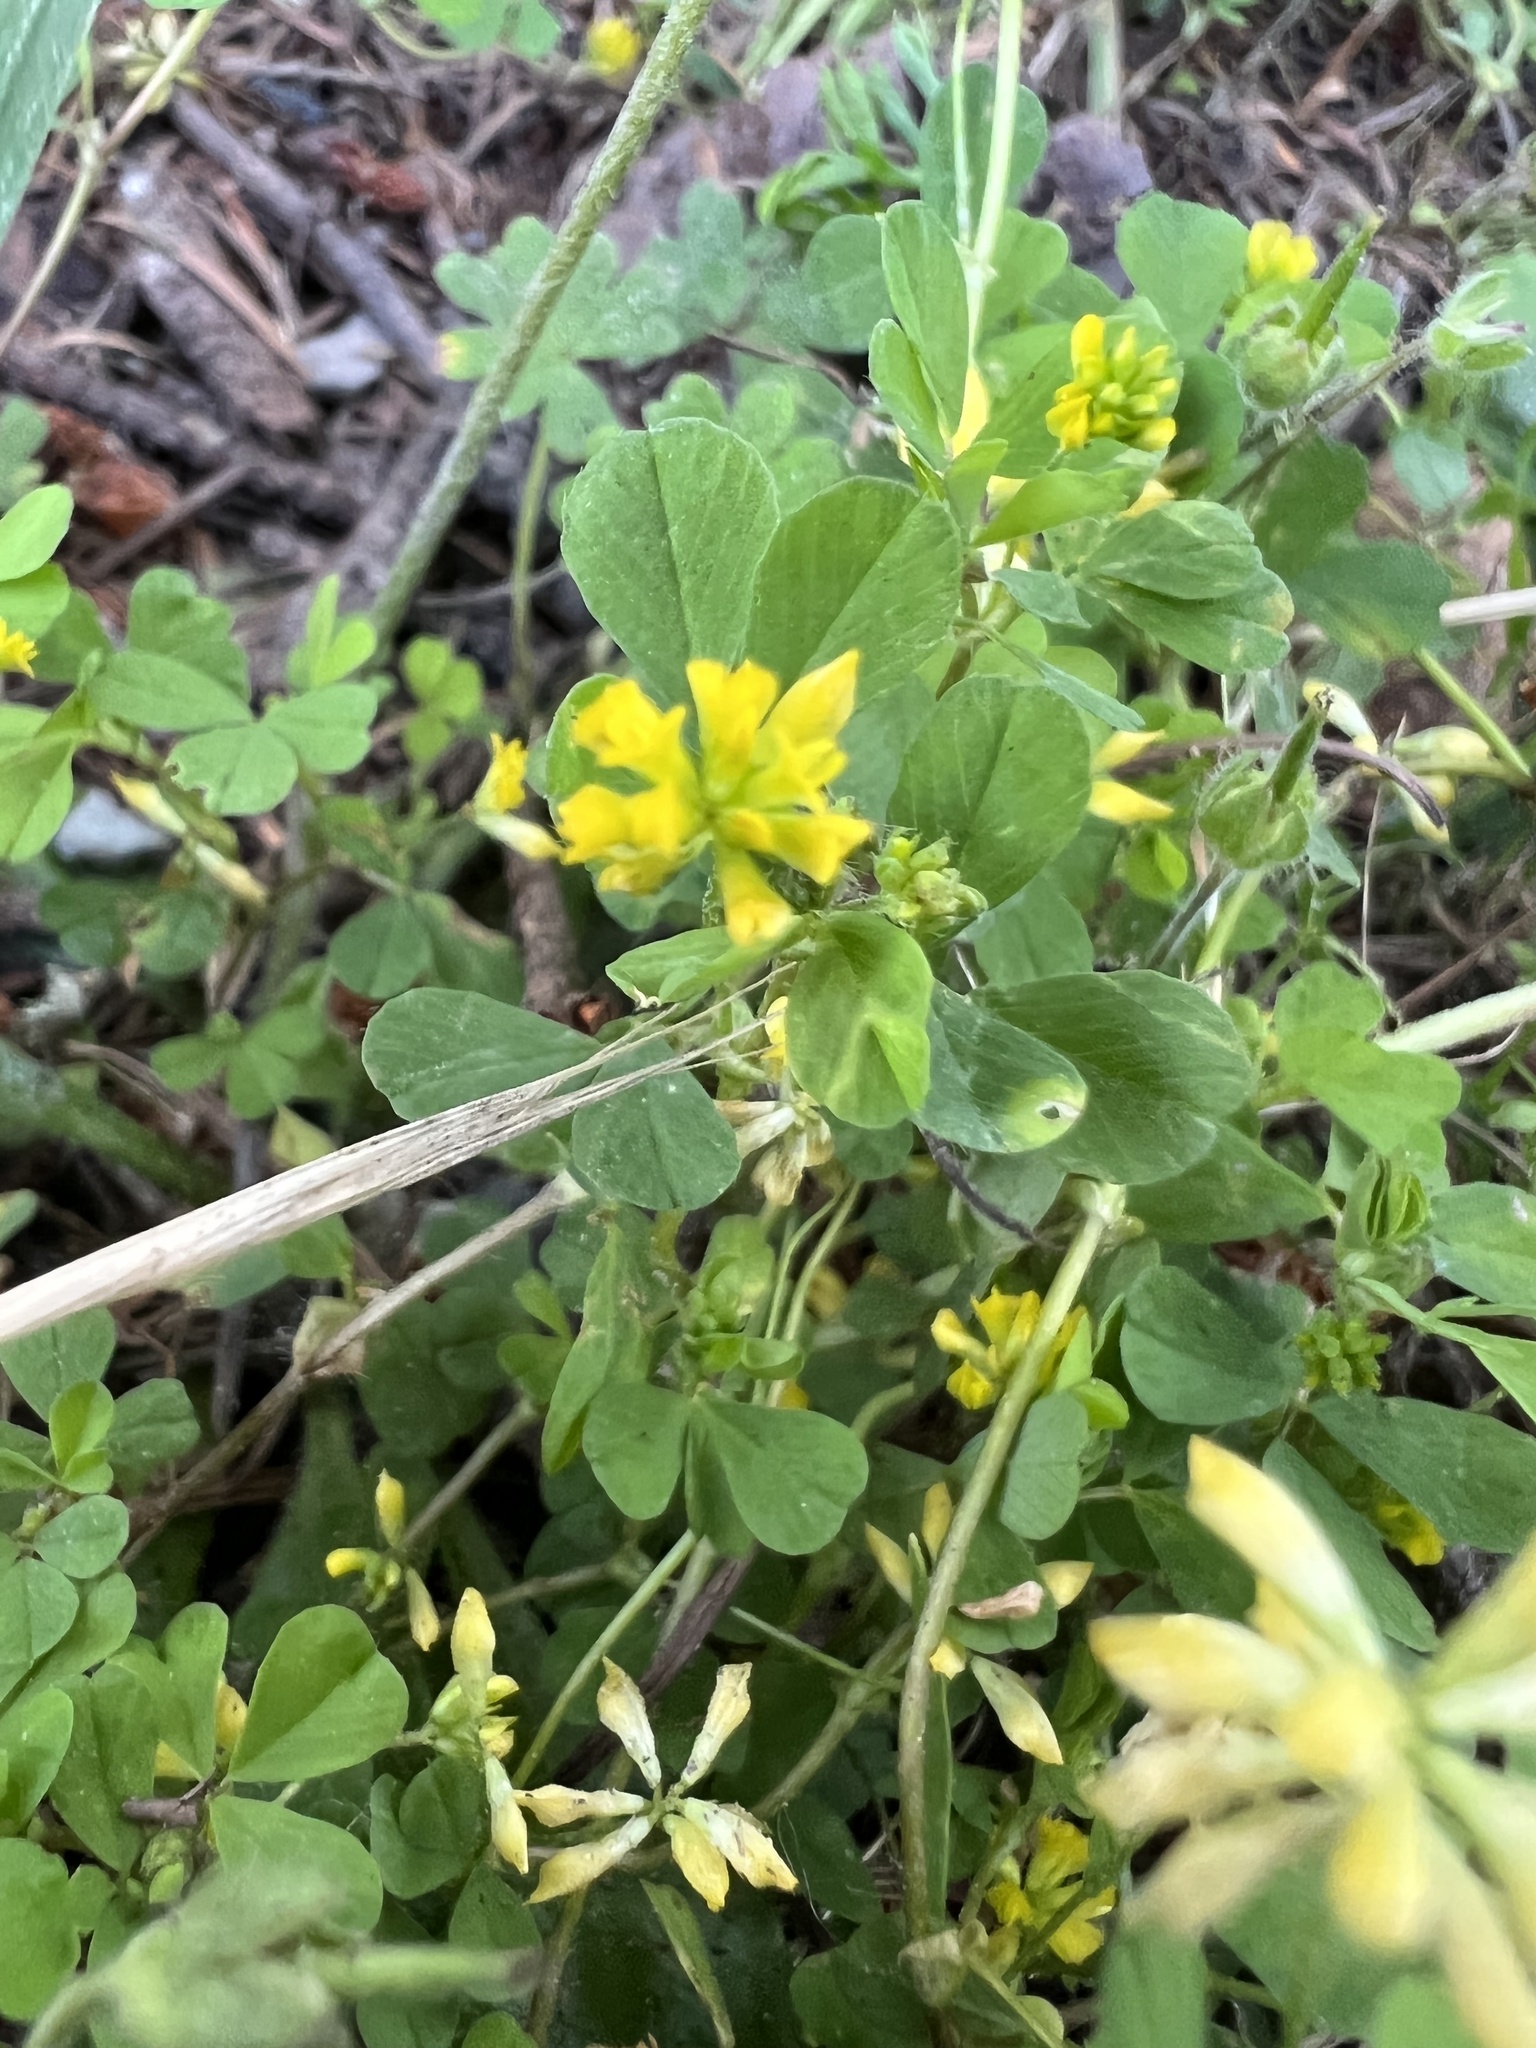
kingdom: Plantae
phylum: Tracheophyta
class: Magnoliopsida
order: Fabales
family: Fabaceae
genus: Trifolium
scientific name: Trifolium dubium
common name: Suckling clover
